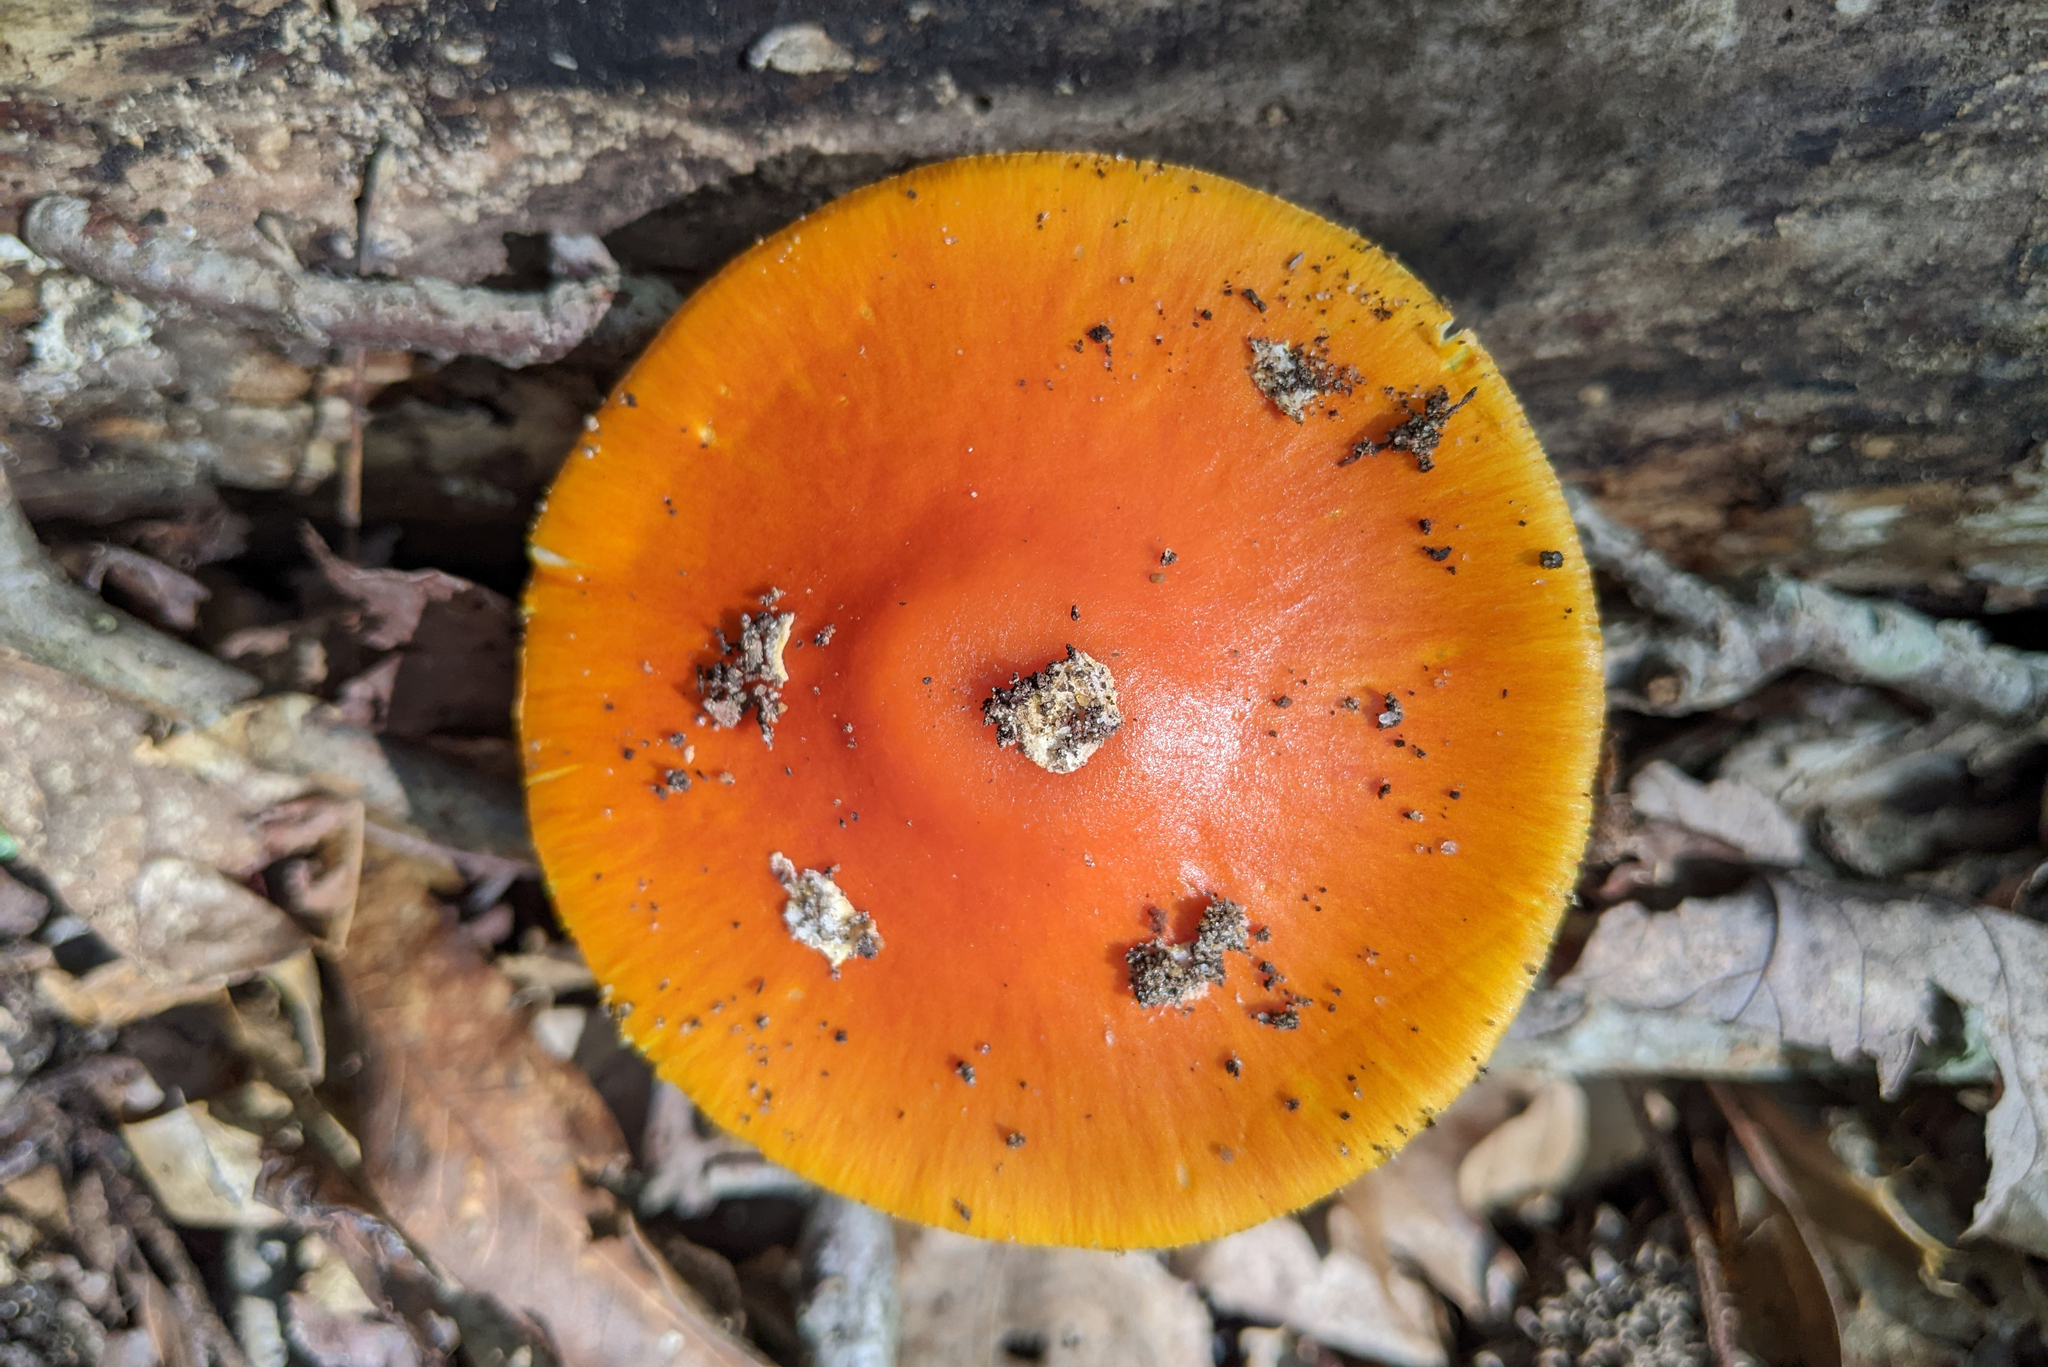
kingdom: Fungi
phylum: Basidiomycota
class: Agaricomycetes
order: Agaricales
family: Amanitaceae
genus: Amanita
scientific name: Amanita flavoconia
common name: Yellow patches
